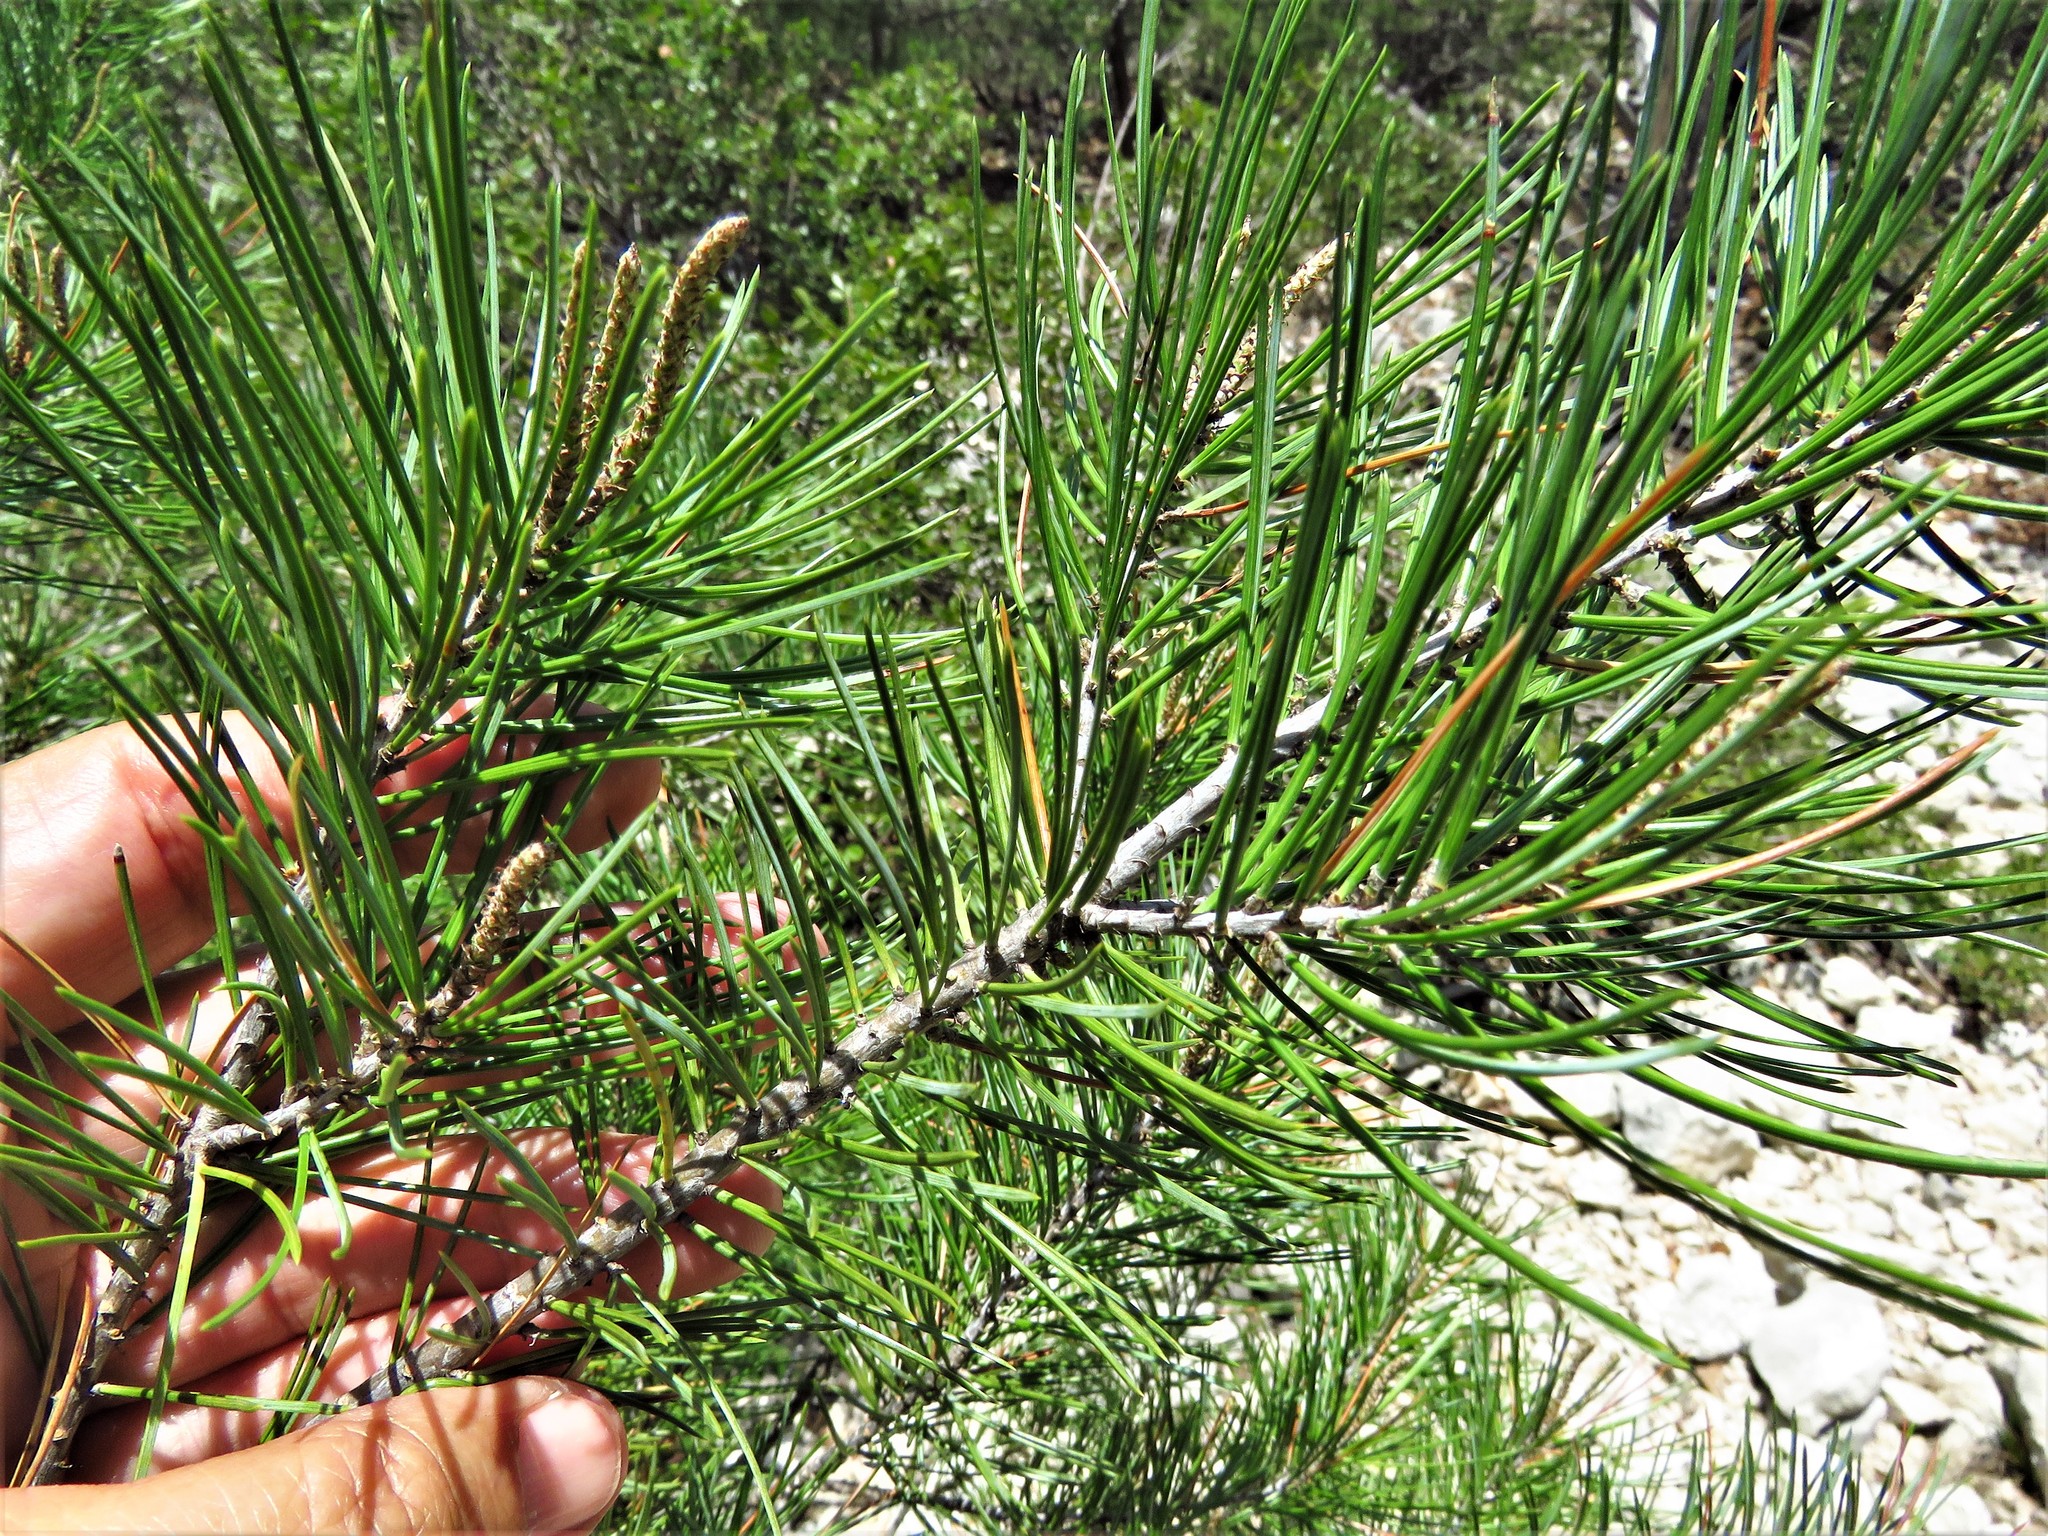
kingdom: Plantae
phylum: Tracheophyta
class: Pinopsida
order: Pinales
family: Pinaceae
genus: Pinus
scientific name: Pinus remota
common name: Nut pine
